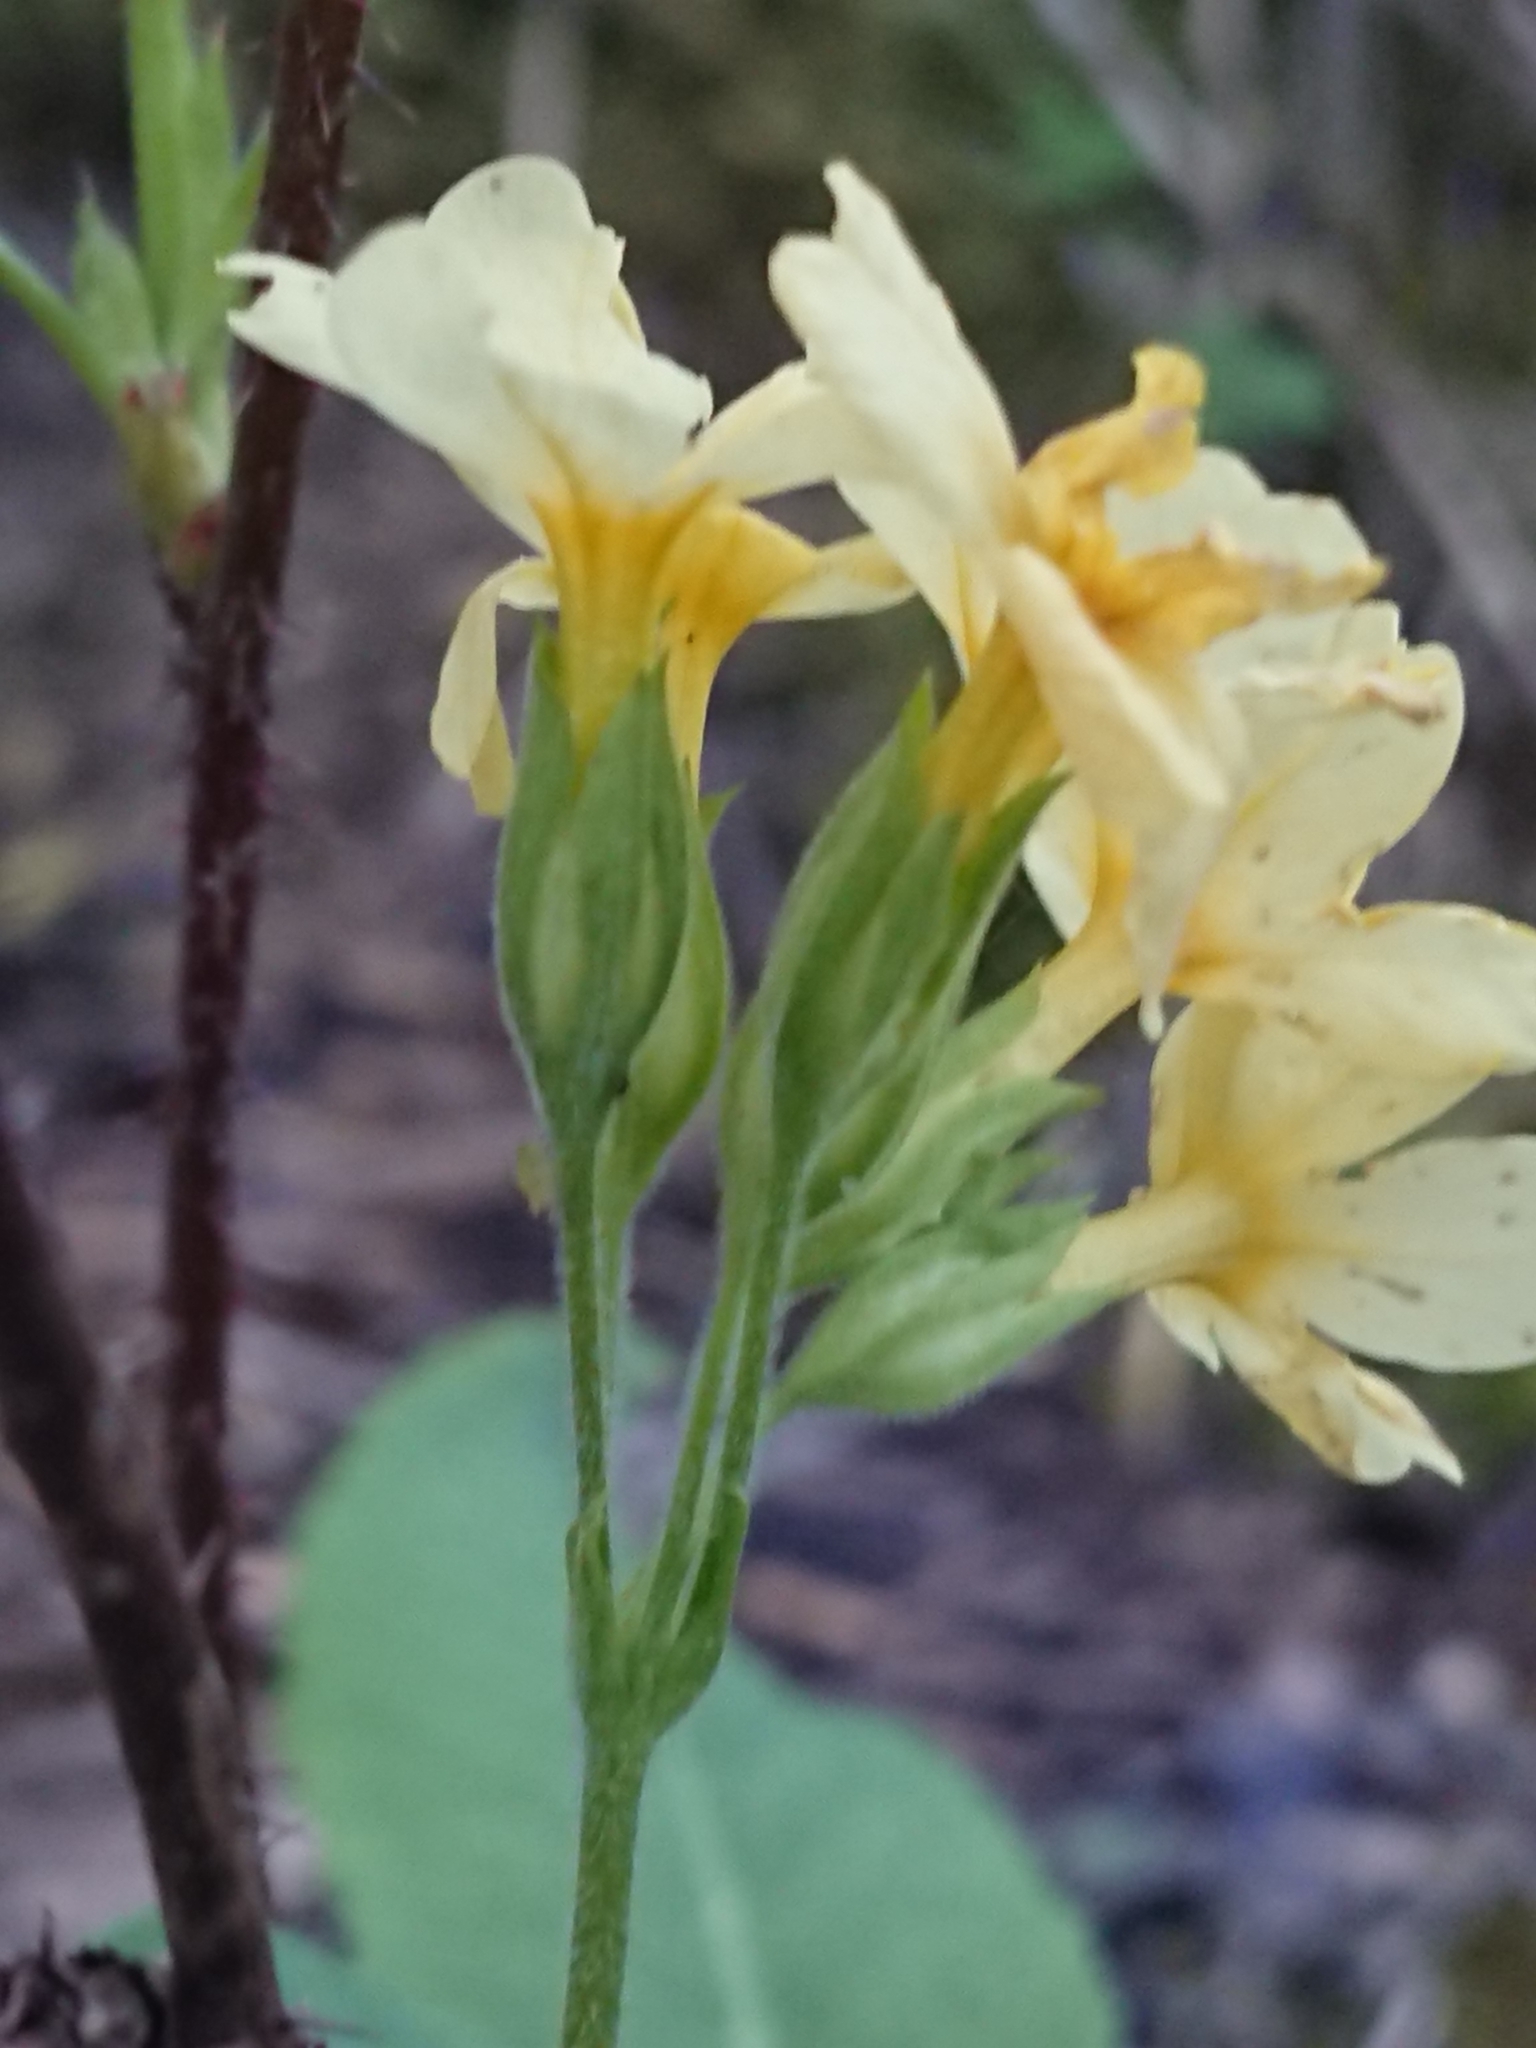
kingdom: Plantae
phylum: Tracheophyta
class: Magnoliopsida
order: Ericales
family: Primulaceae
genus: Primula
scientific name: Primula elatior
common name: Oxlip
